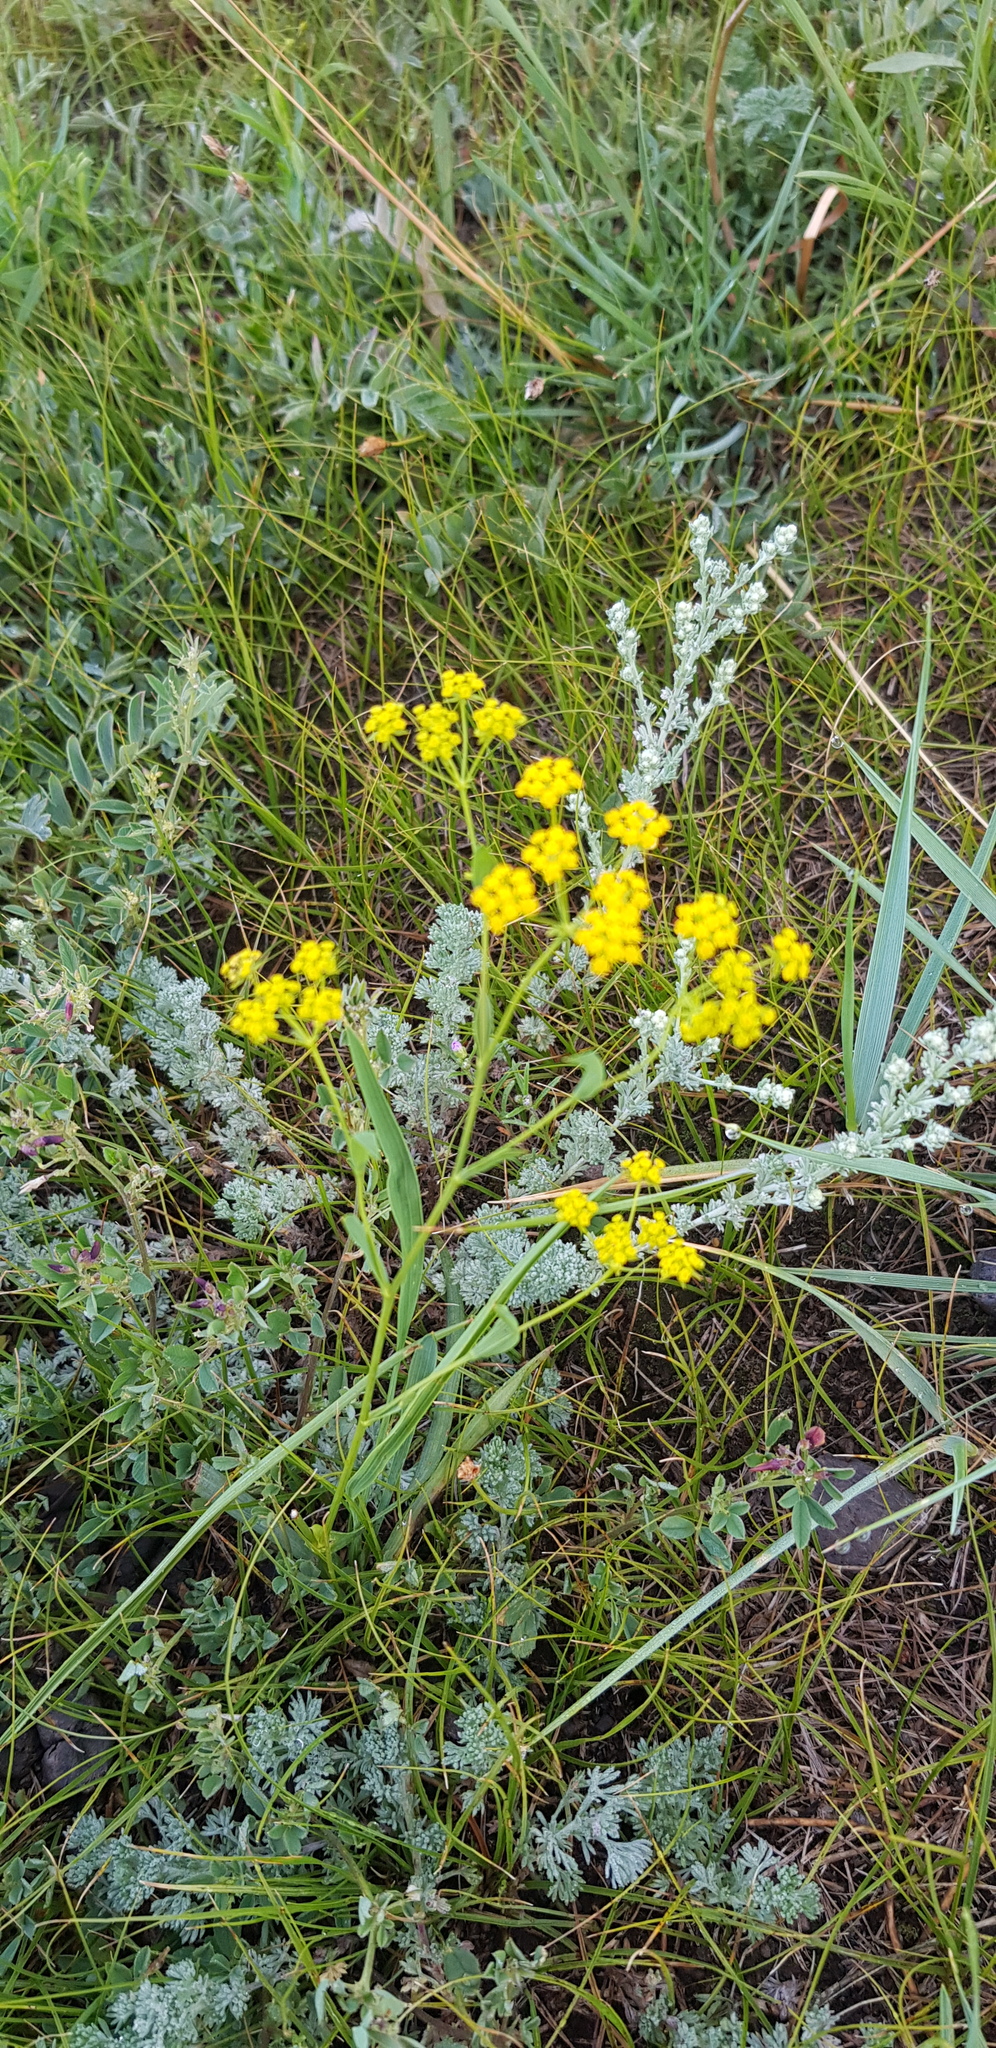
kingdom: Plantae
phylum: Tracheophyta
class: Magnoliopsida
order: Apiales
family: Apiaceae
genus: Bupleurum
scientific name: Bupleurum sibiricum
